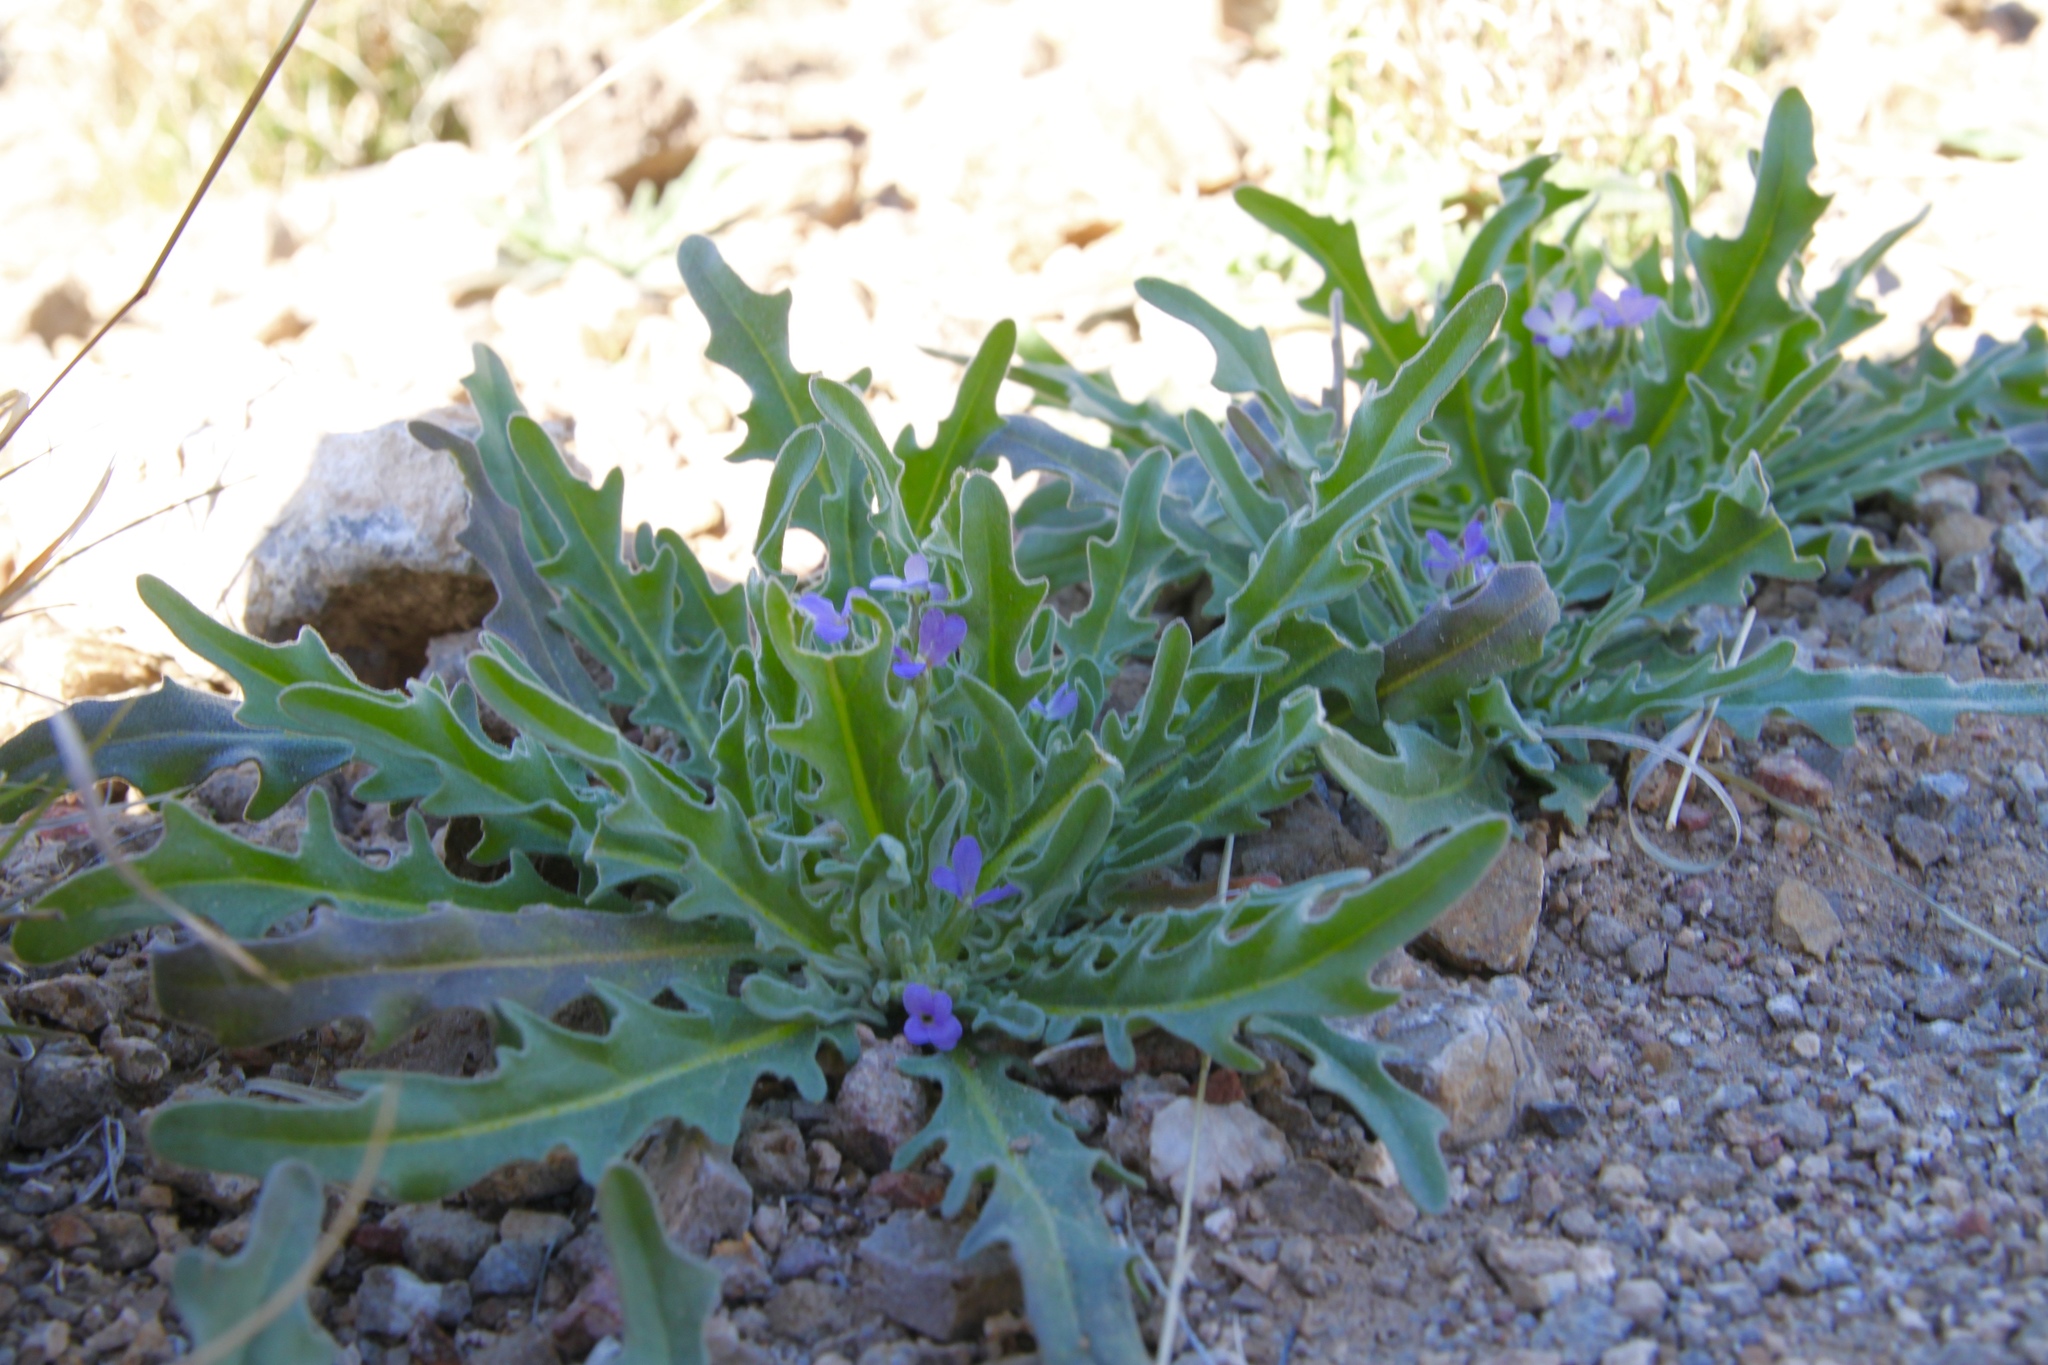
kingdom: Plantae
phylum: Tracheophyta
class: Magnoliopsida
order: Brassicales
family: Brassicaceae
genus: Matthiola
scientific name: Matthiola parviflora
